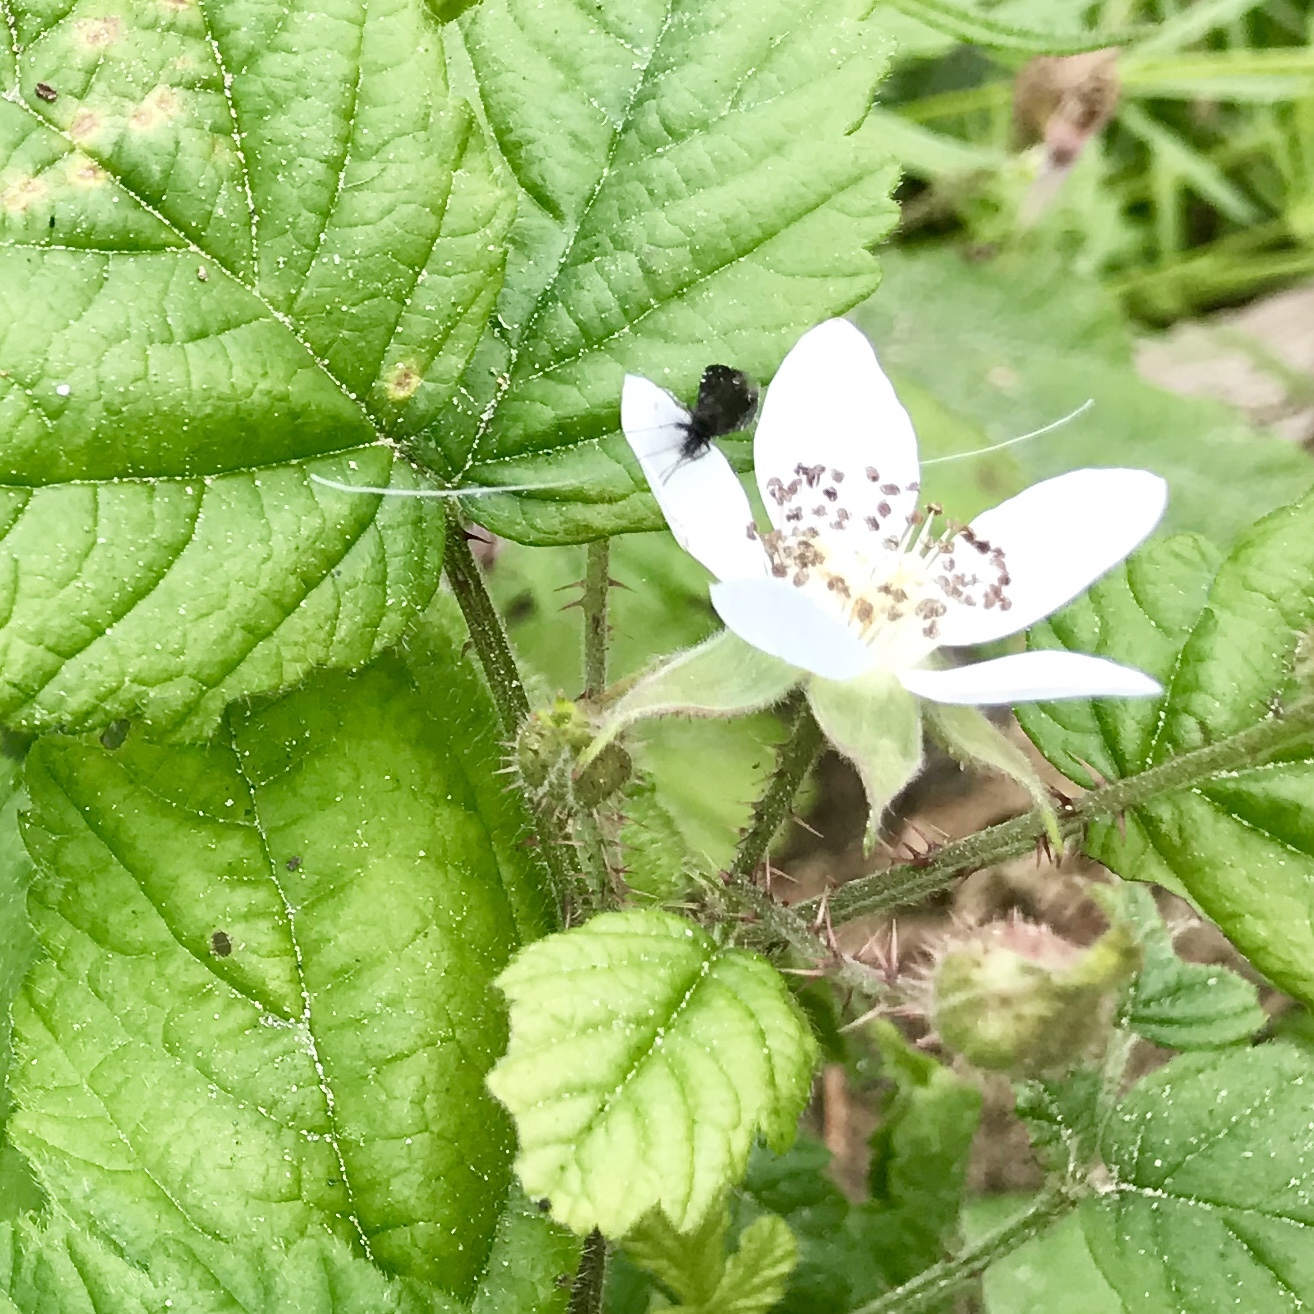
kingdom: Animalia
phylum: Arthropoda
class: Insecta
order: Lepidoptera
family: Adelidae
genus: Adela
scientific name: Adela septentrionella
